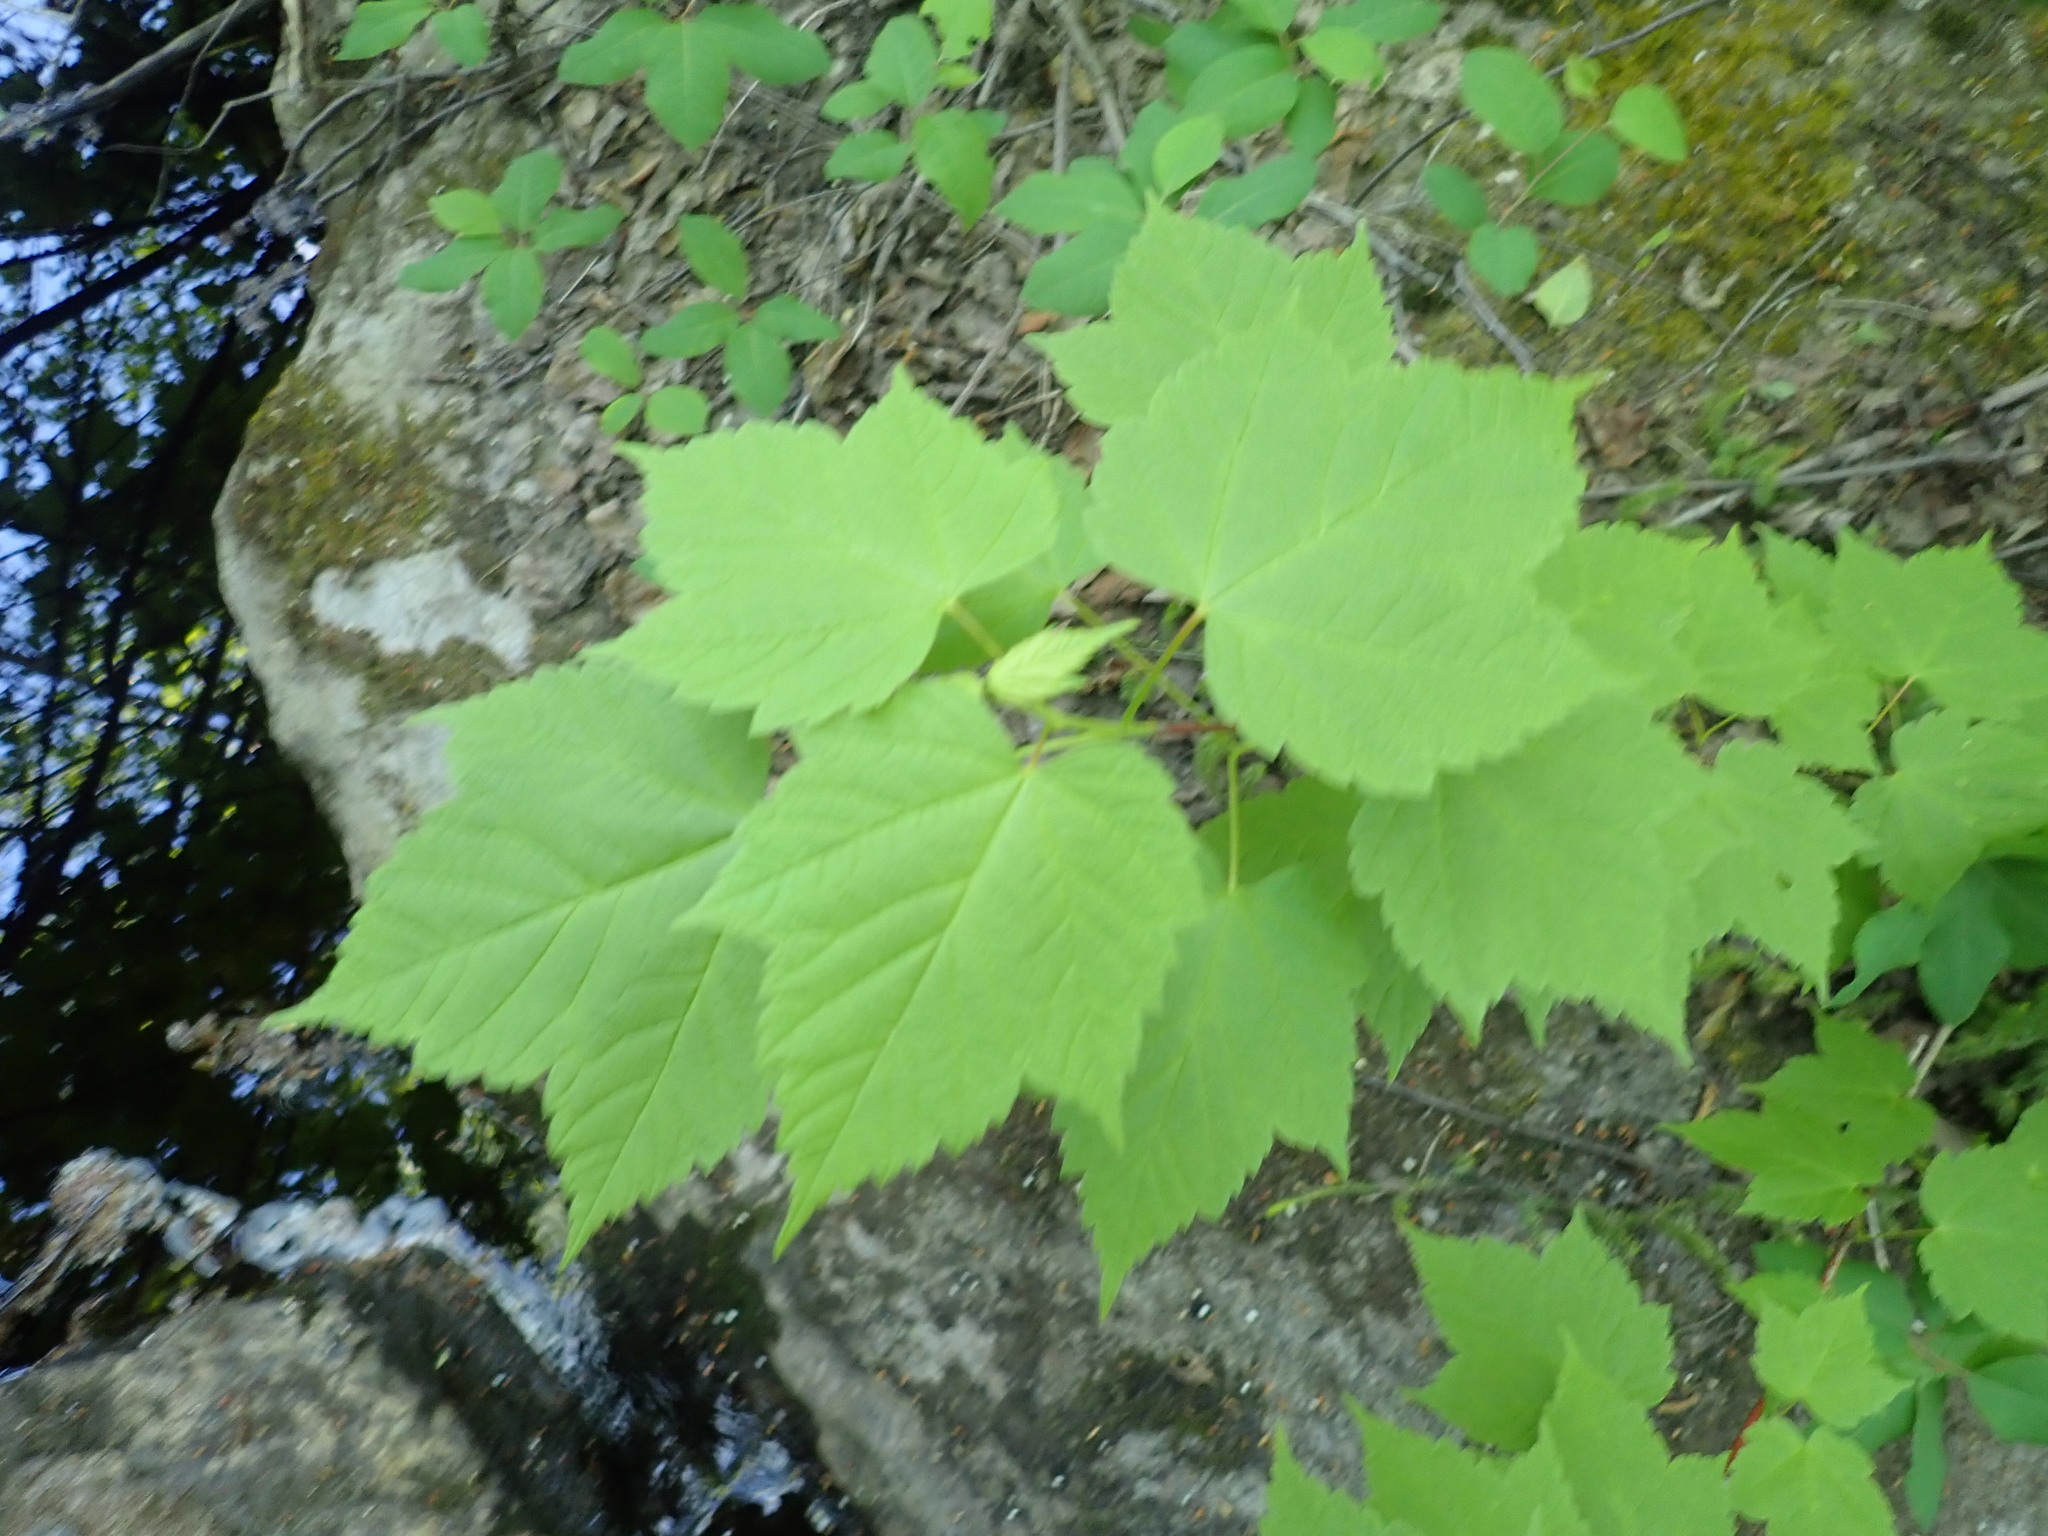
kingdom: Plantae
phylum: Tracheophyta
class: Magnoliopsida
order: Sapindales
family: Sapindaceae
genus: Acer
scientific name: Acer spicatum
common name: Mountain maple
